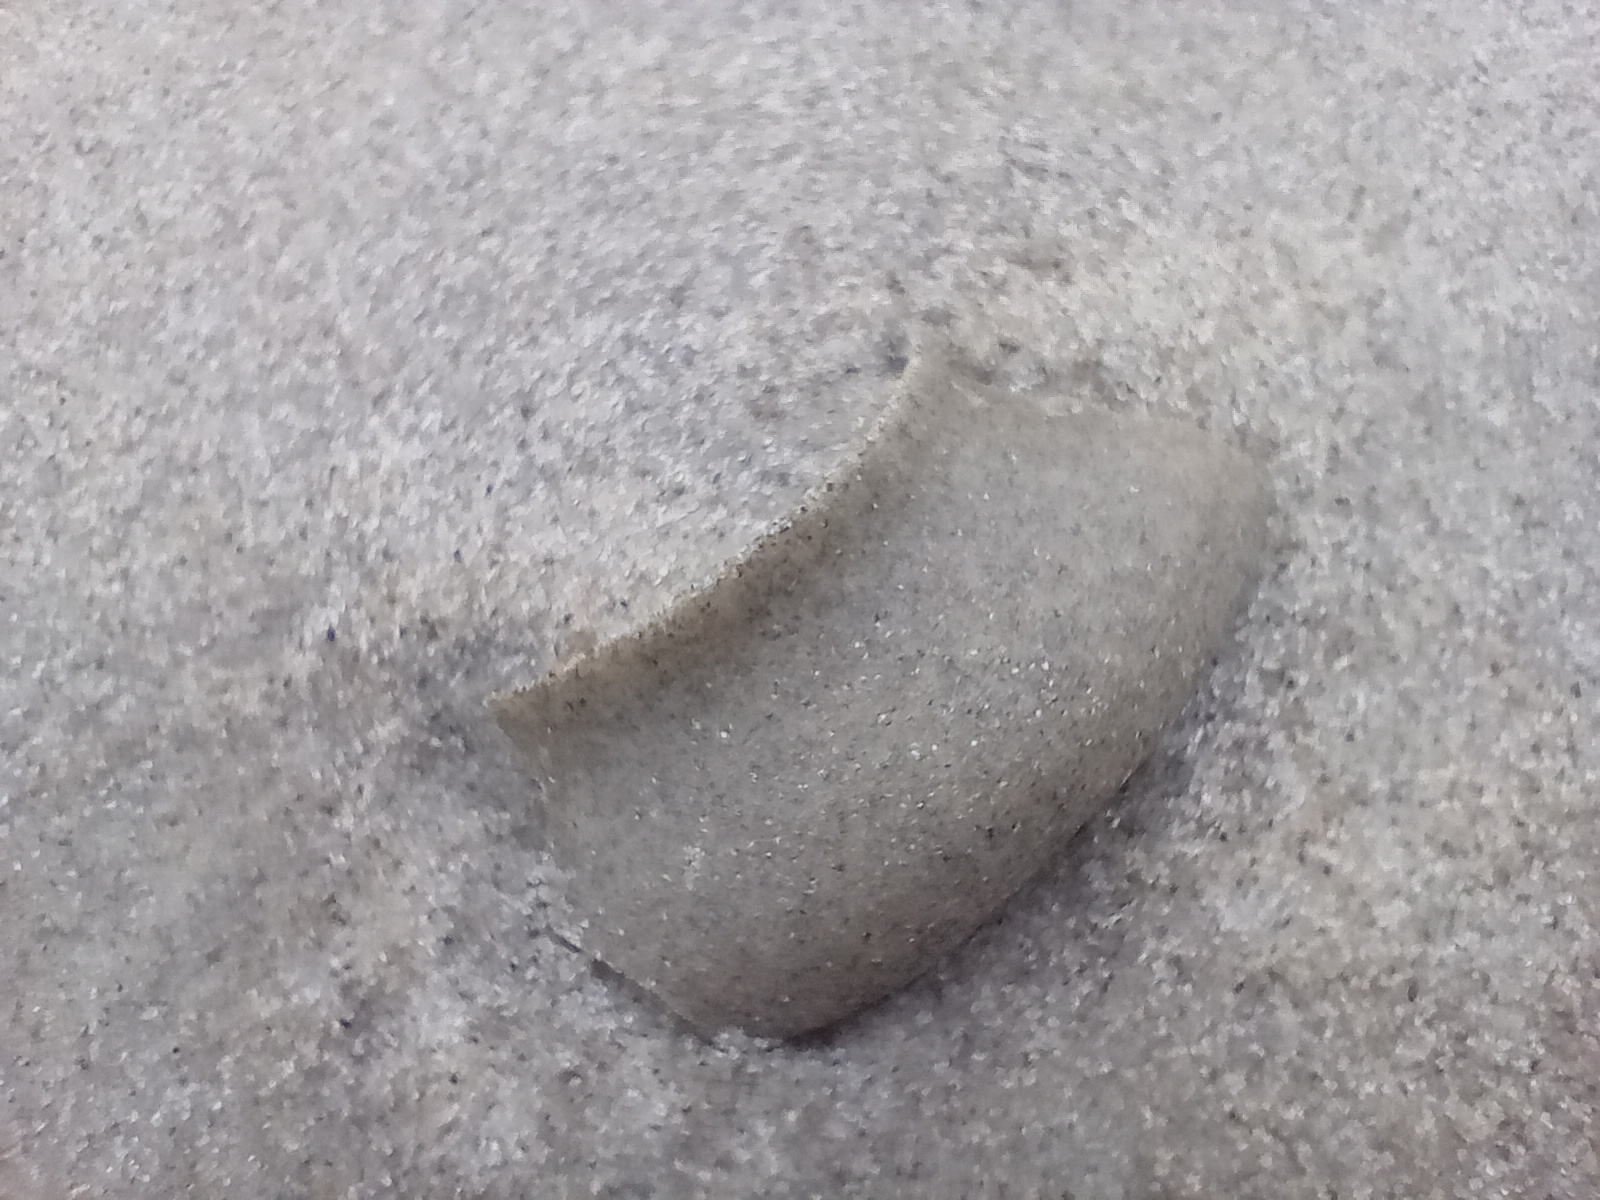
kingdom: Animalia
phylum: Mollusca
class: Gastropoda
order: Littorinimorpha
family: Naticidae
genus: Tanea
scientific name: Tanea zelandica
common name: New zealand moonsnail
